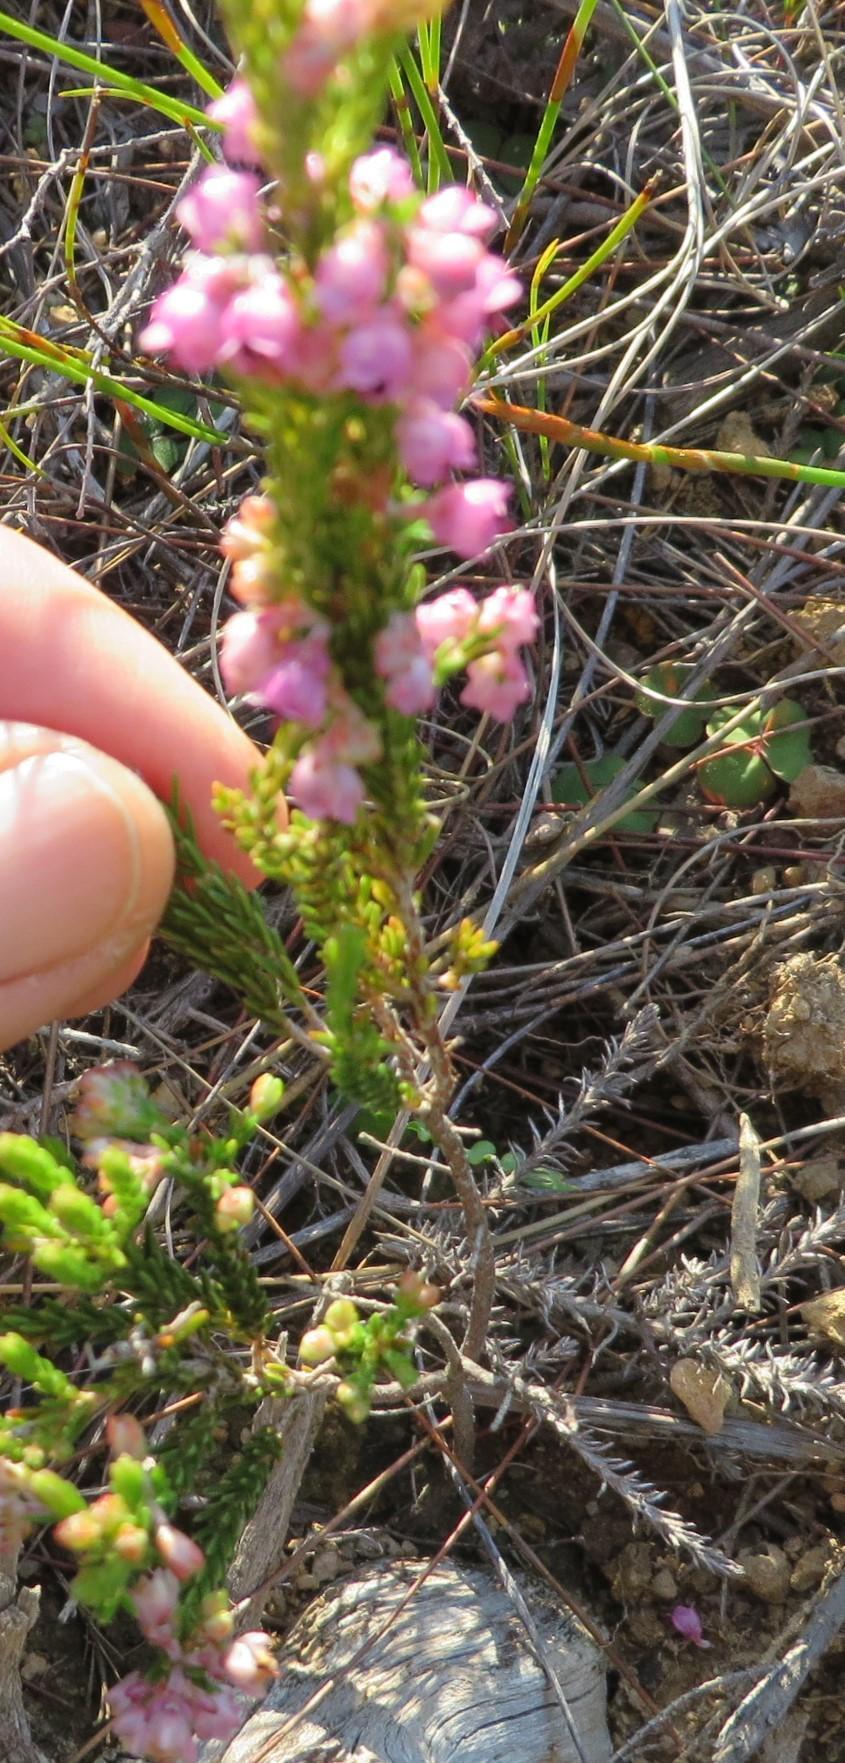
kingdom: Plantae
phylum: Tracheophyta
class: Magnoliopsida
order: Ericales
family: Ericaceae
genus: Erica
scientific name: Erica lucida
